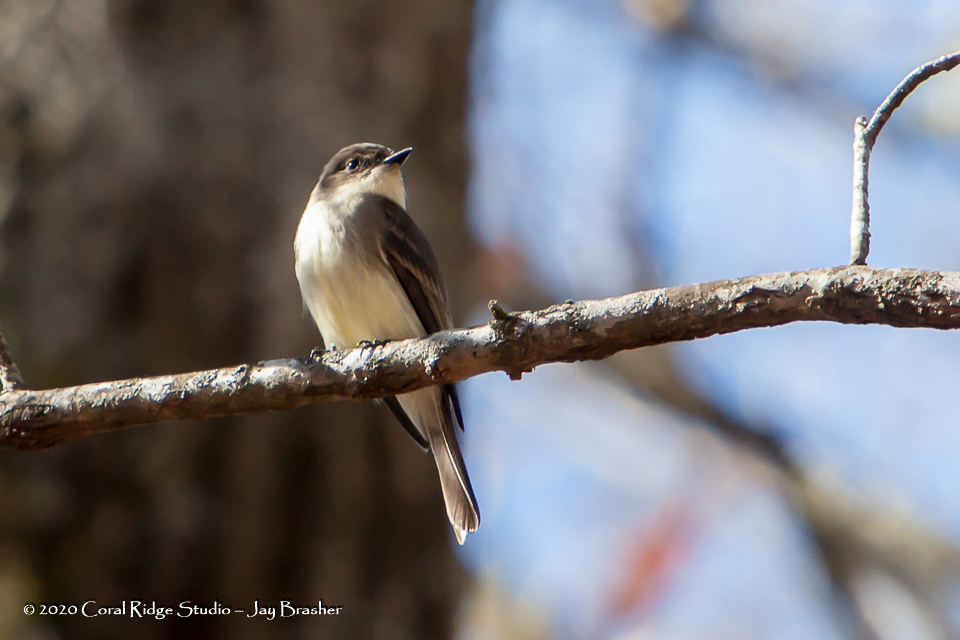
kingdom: Animalia
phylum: Chordata
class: Aves
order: Passeriformes
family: Tyrannidae
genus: Sayornis
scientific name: Sayornis phoebe
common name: Eastern phoebe
